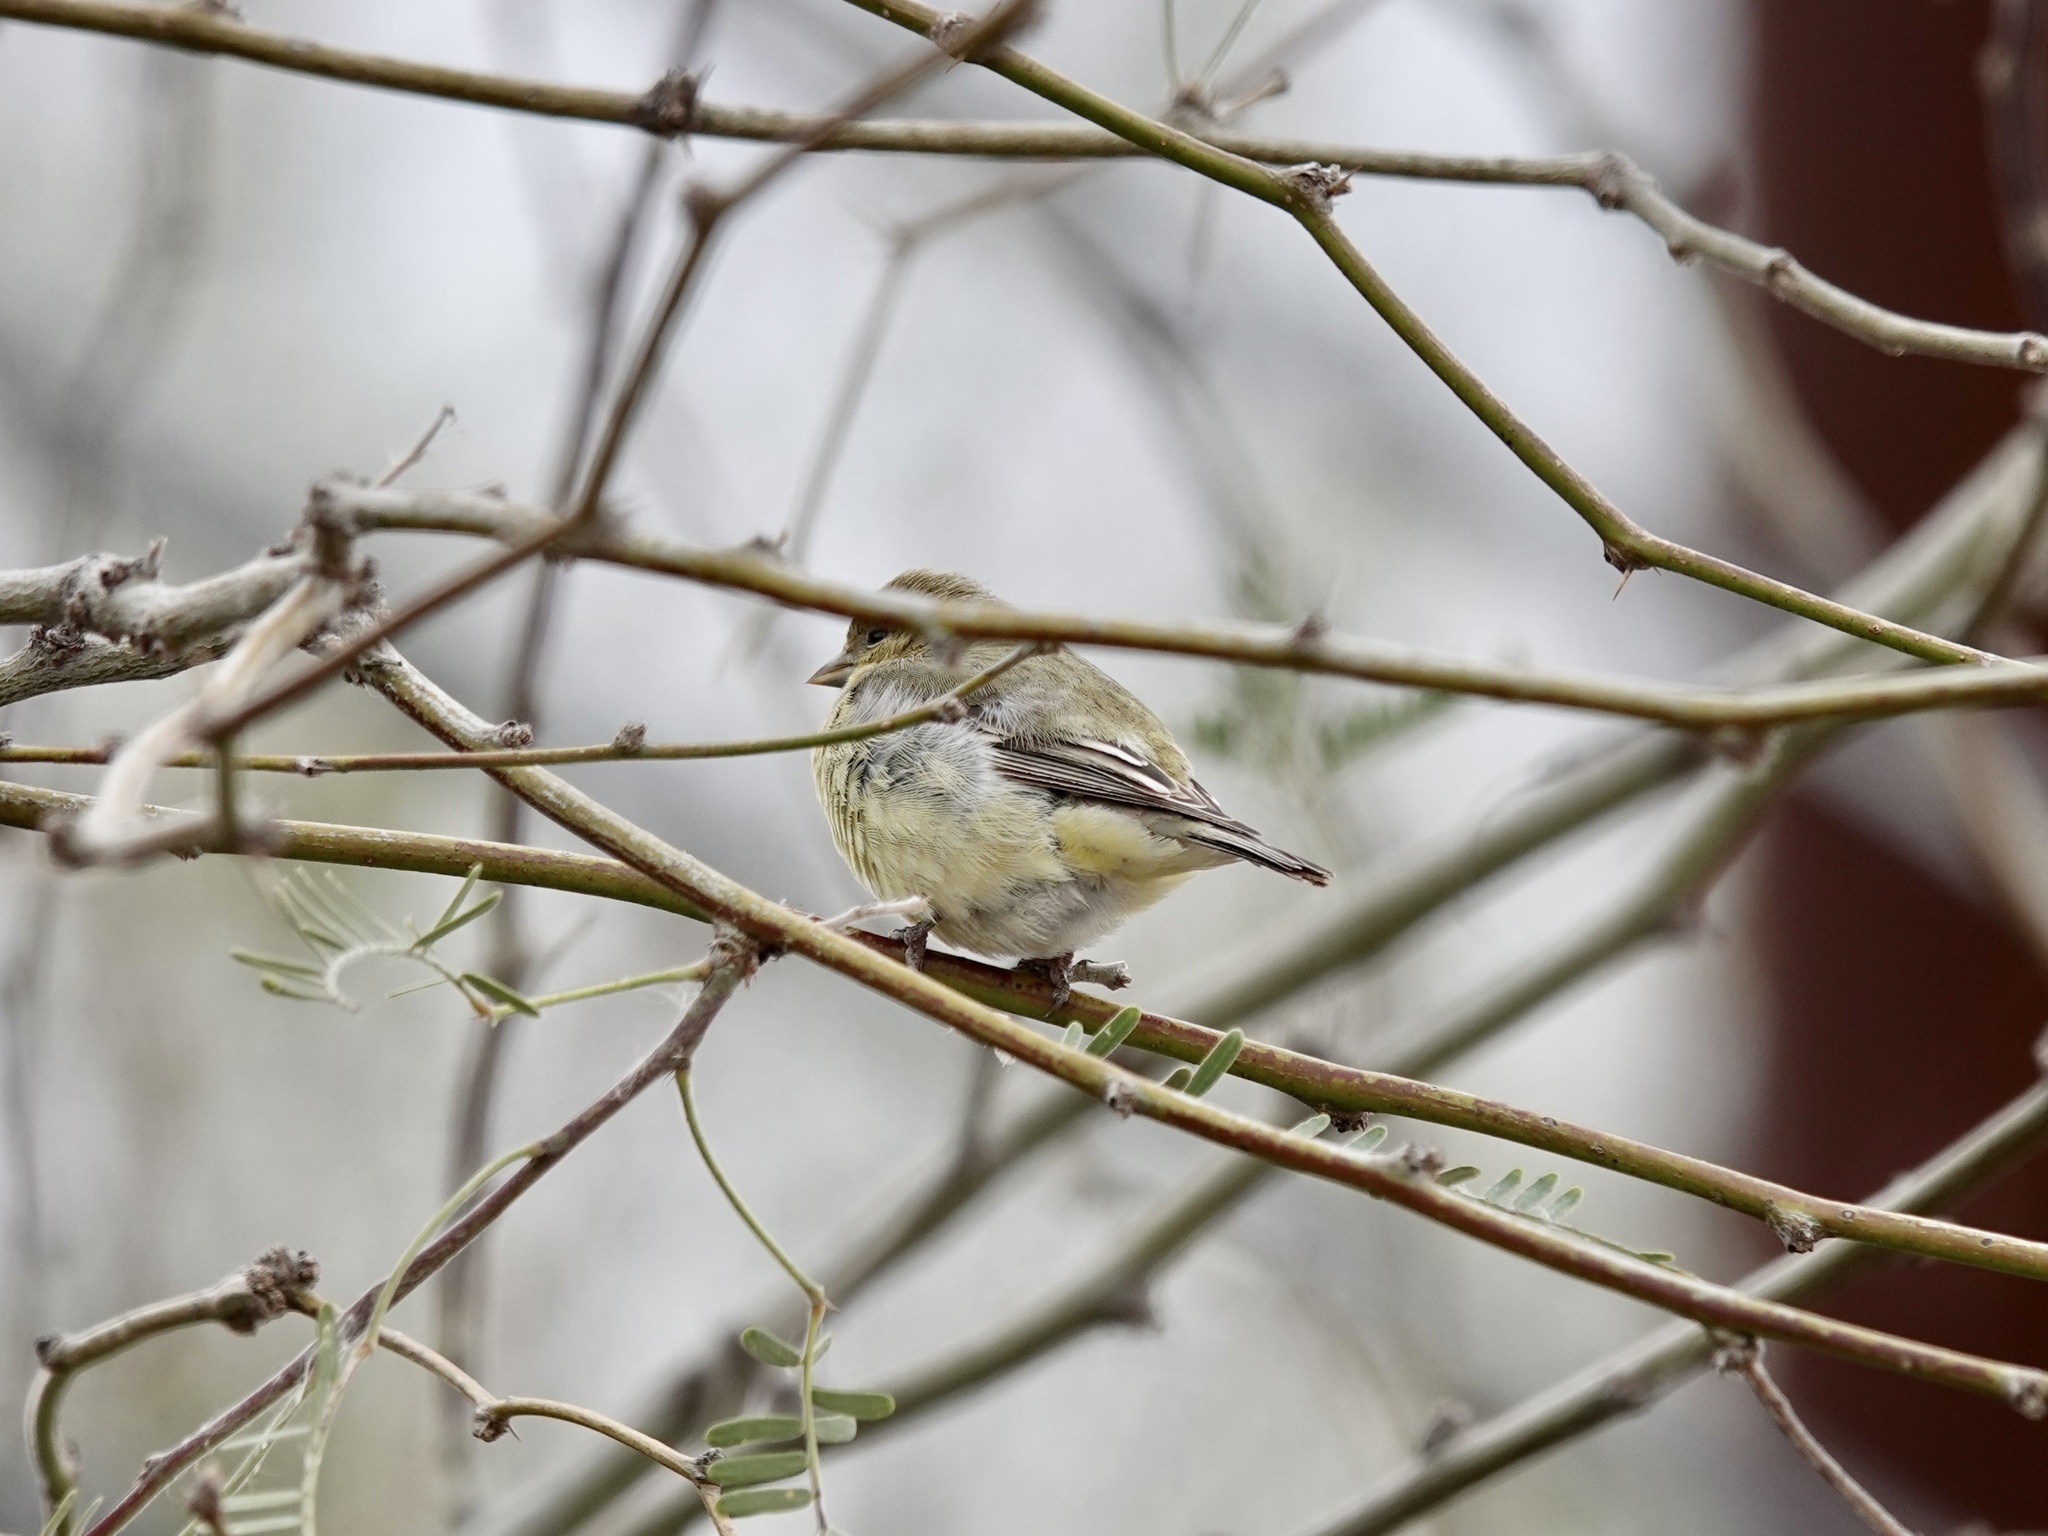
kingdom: Animalia
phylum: Chordata
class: Aves
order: Passeriformes
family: Fringillidae
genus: Spinus
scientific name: Spinus psaltria
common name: Lesser goldfinch
